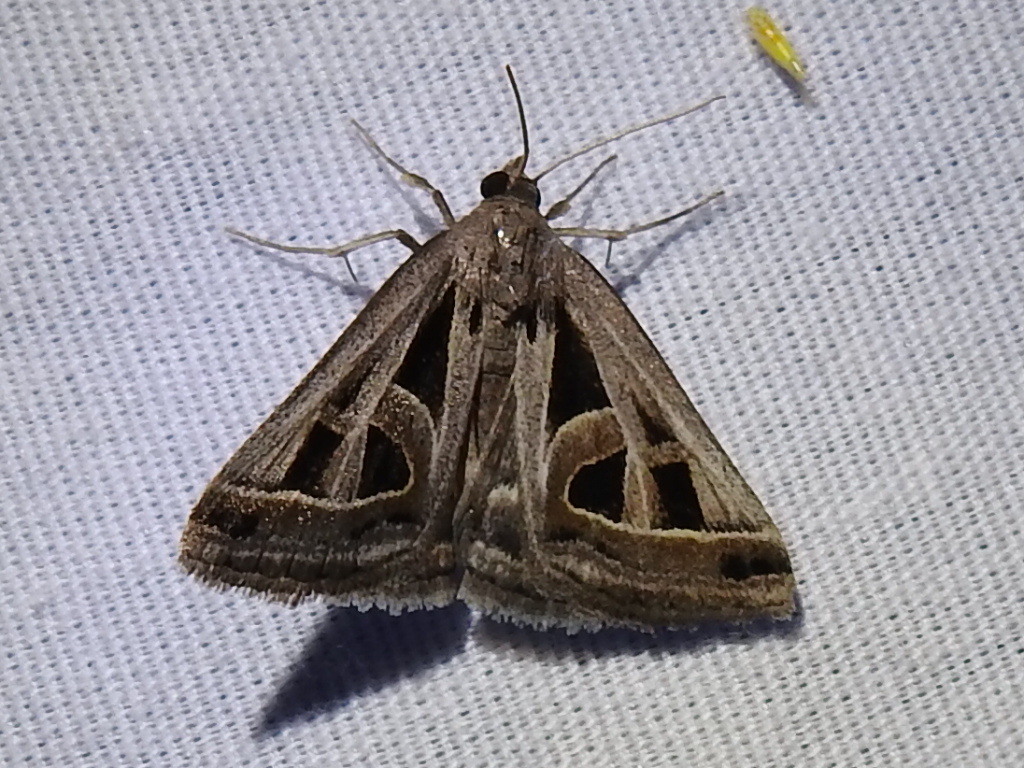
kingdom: Animalia
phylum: Arthropoda
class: Insecta
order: Lepidoptera
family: Erebidae
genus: Callistege
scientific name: Callistege diagonalis
